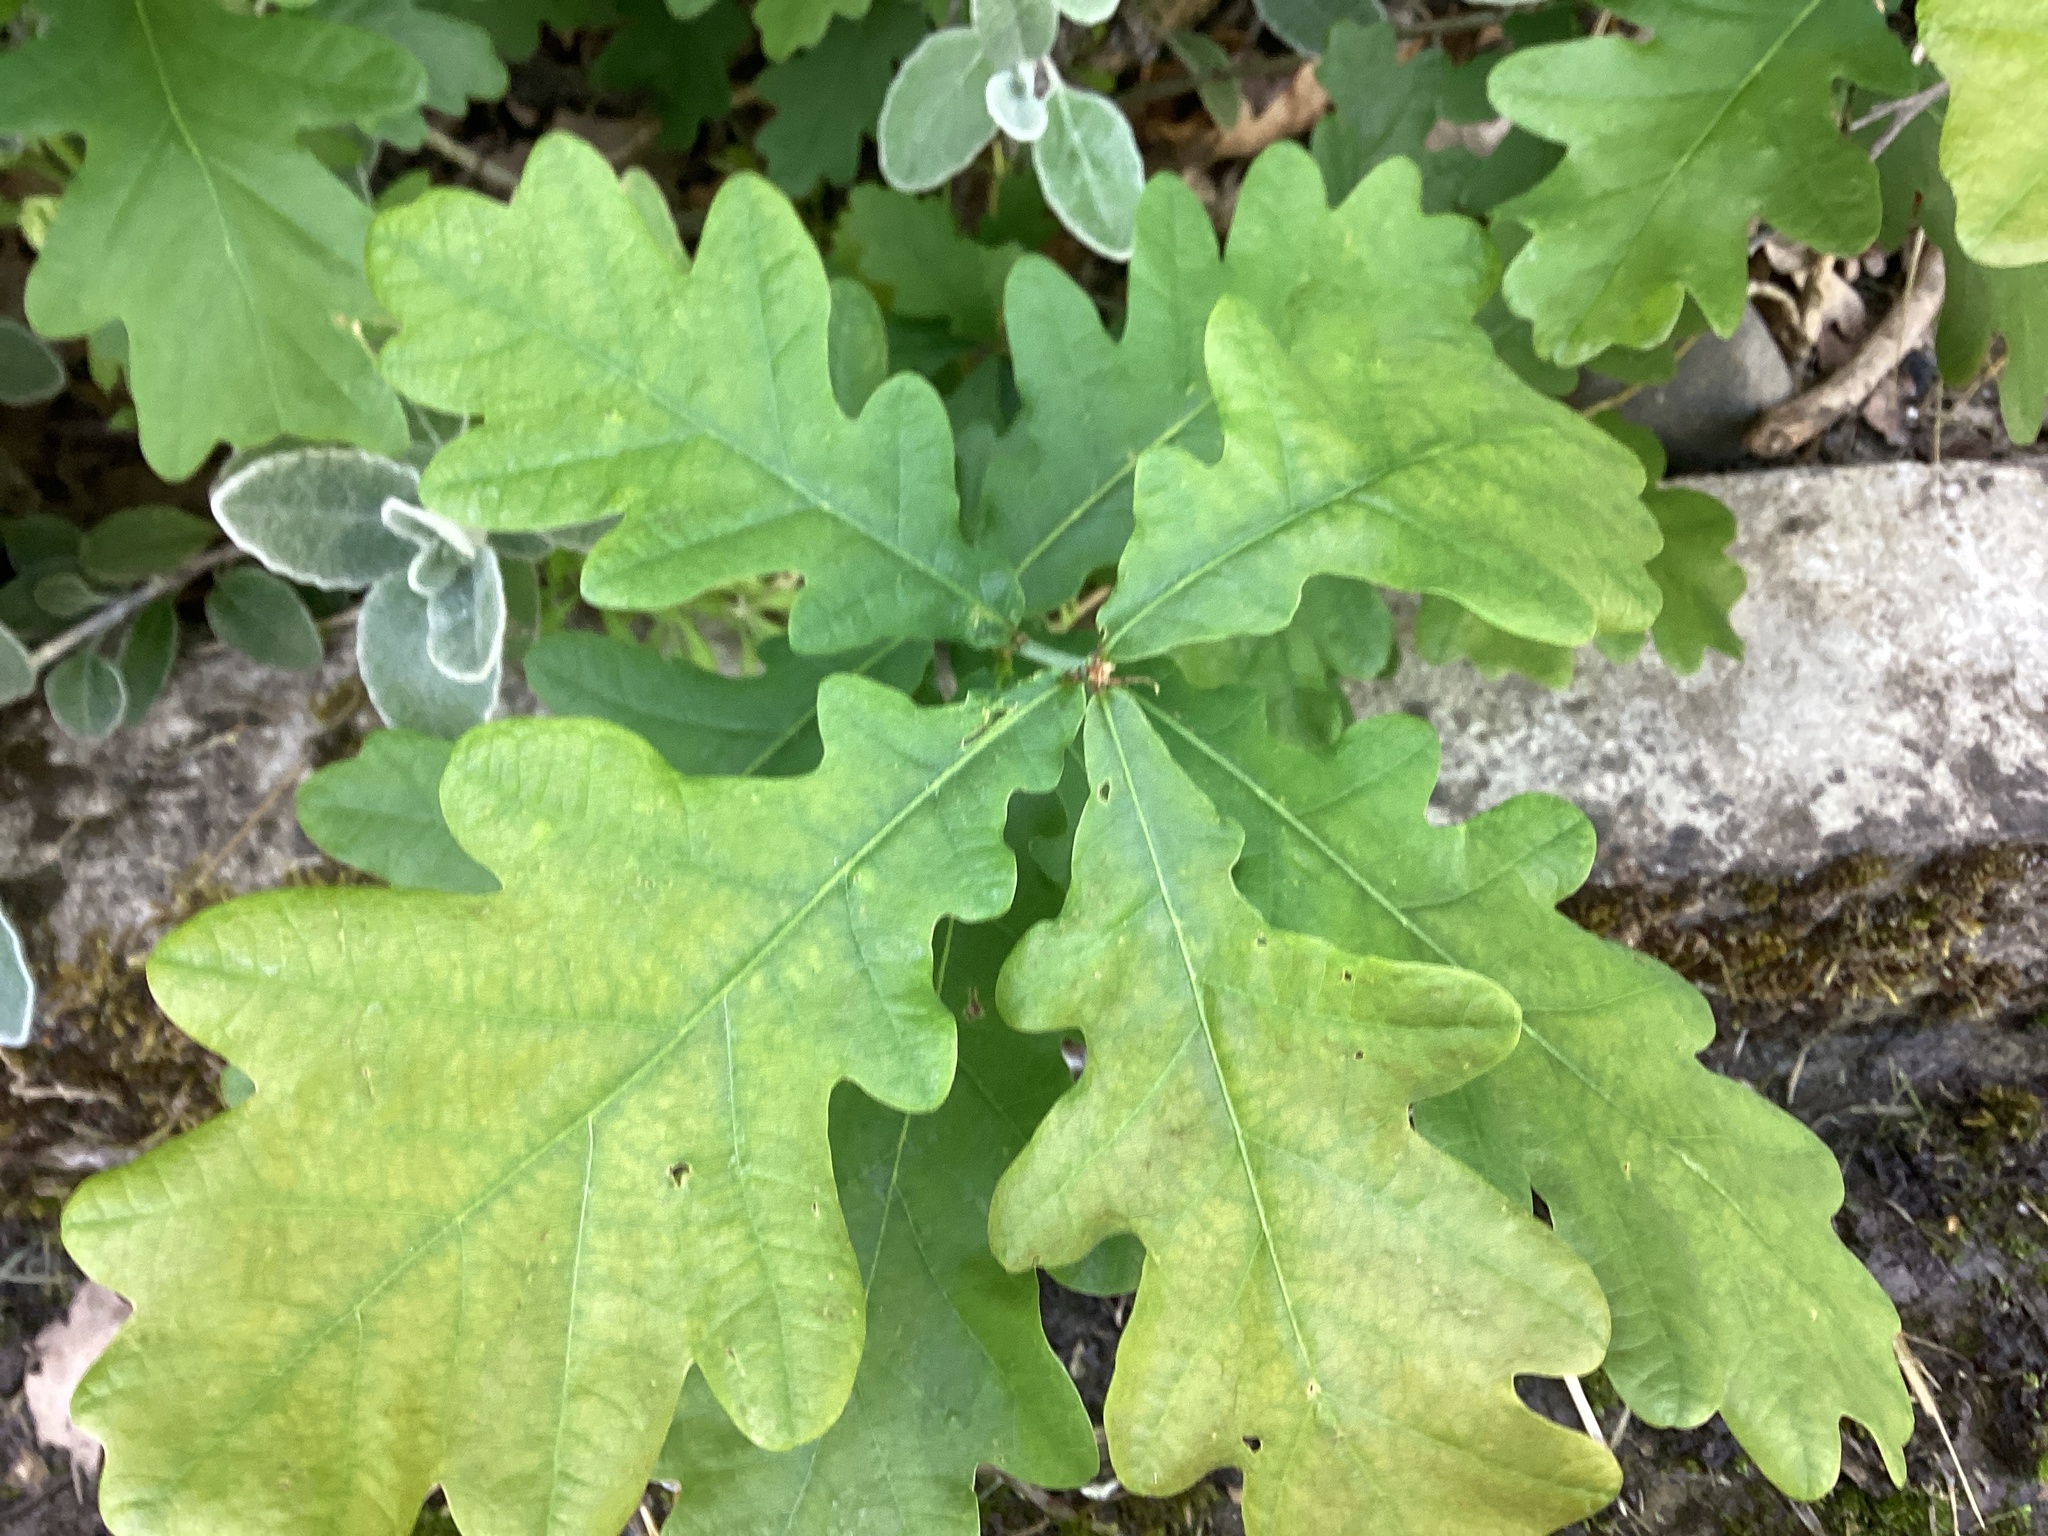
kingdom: Plantae
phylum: Tracheophyta
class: Magnoliopsida
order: Fagales
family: Fagaceae
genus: Quercus
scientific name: Quercus robur
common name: Pedunculate oak
